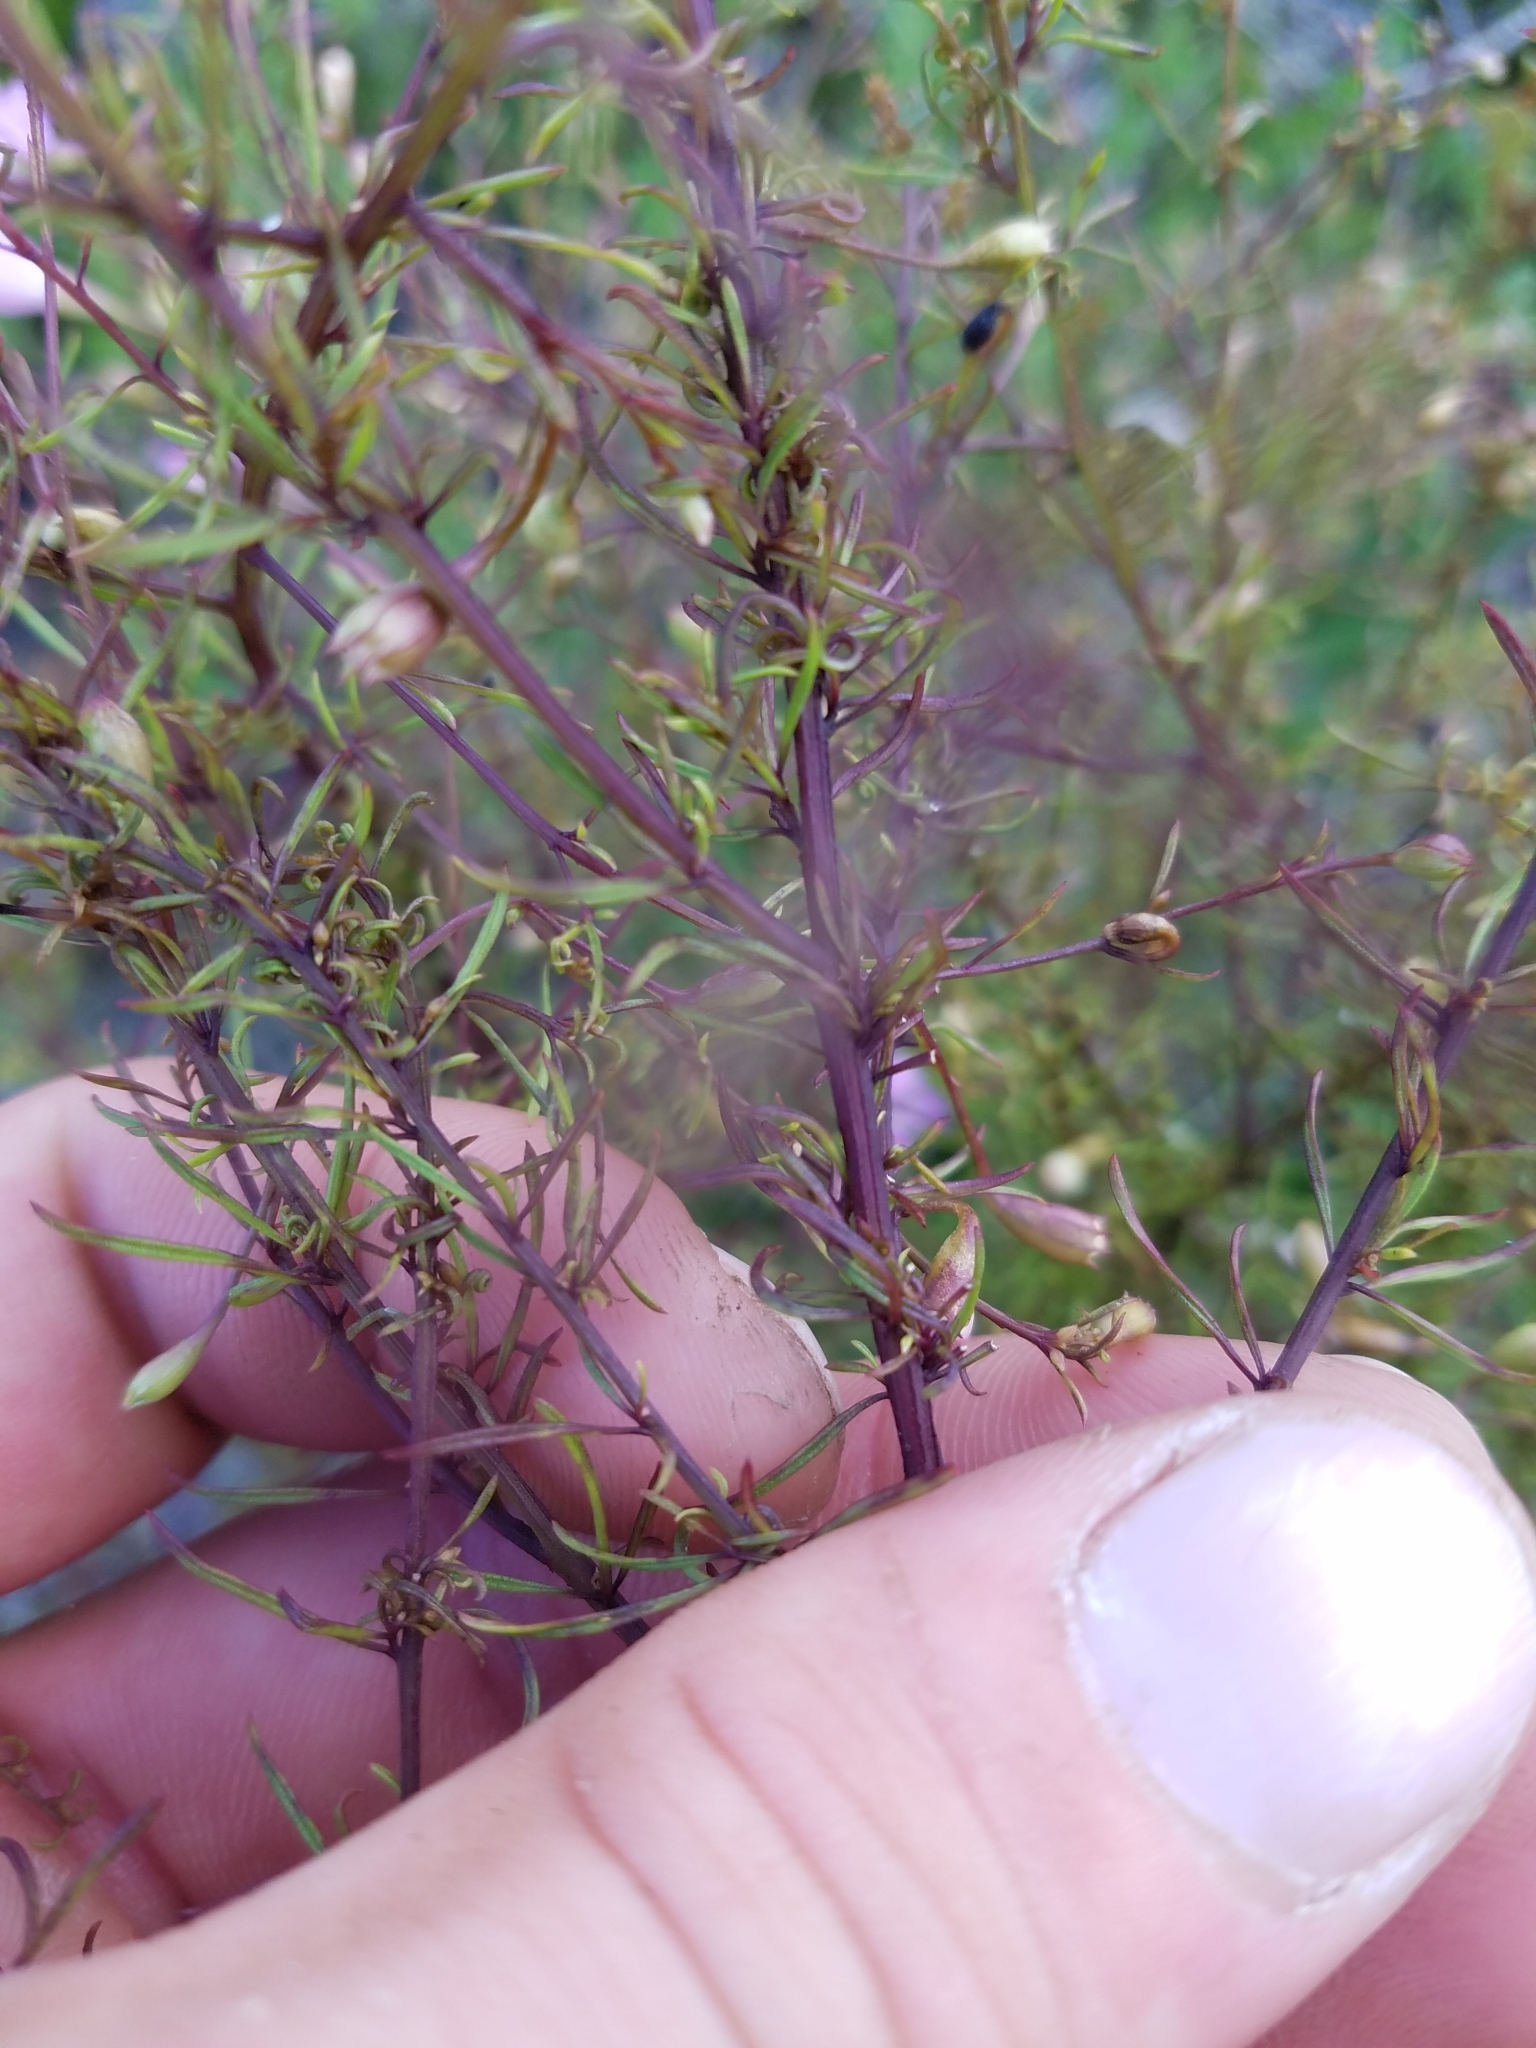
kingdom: Plantae
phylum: Tracheophyta
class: Magnoliopsida
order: Lamiales
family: Orobanchaceae
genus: Agalinis
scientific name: Agalinis filifolia
